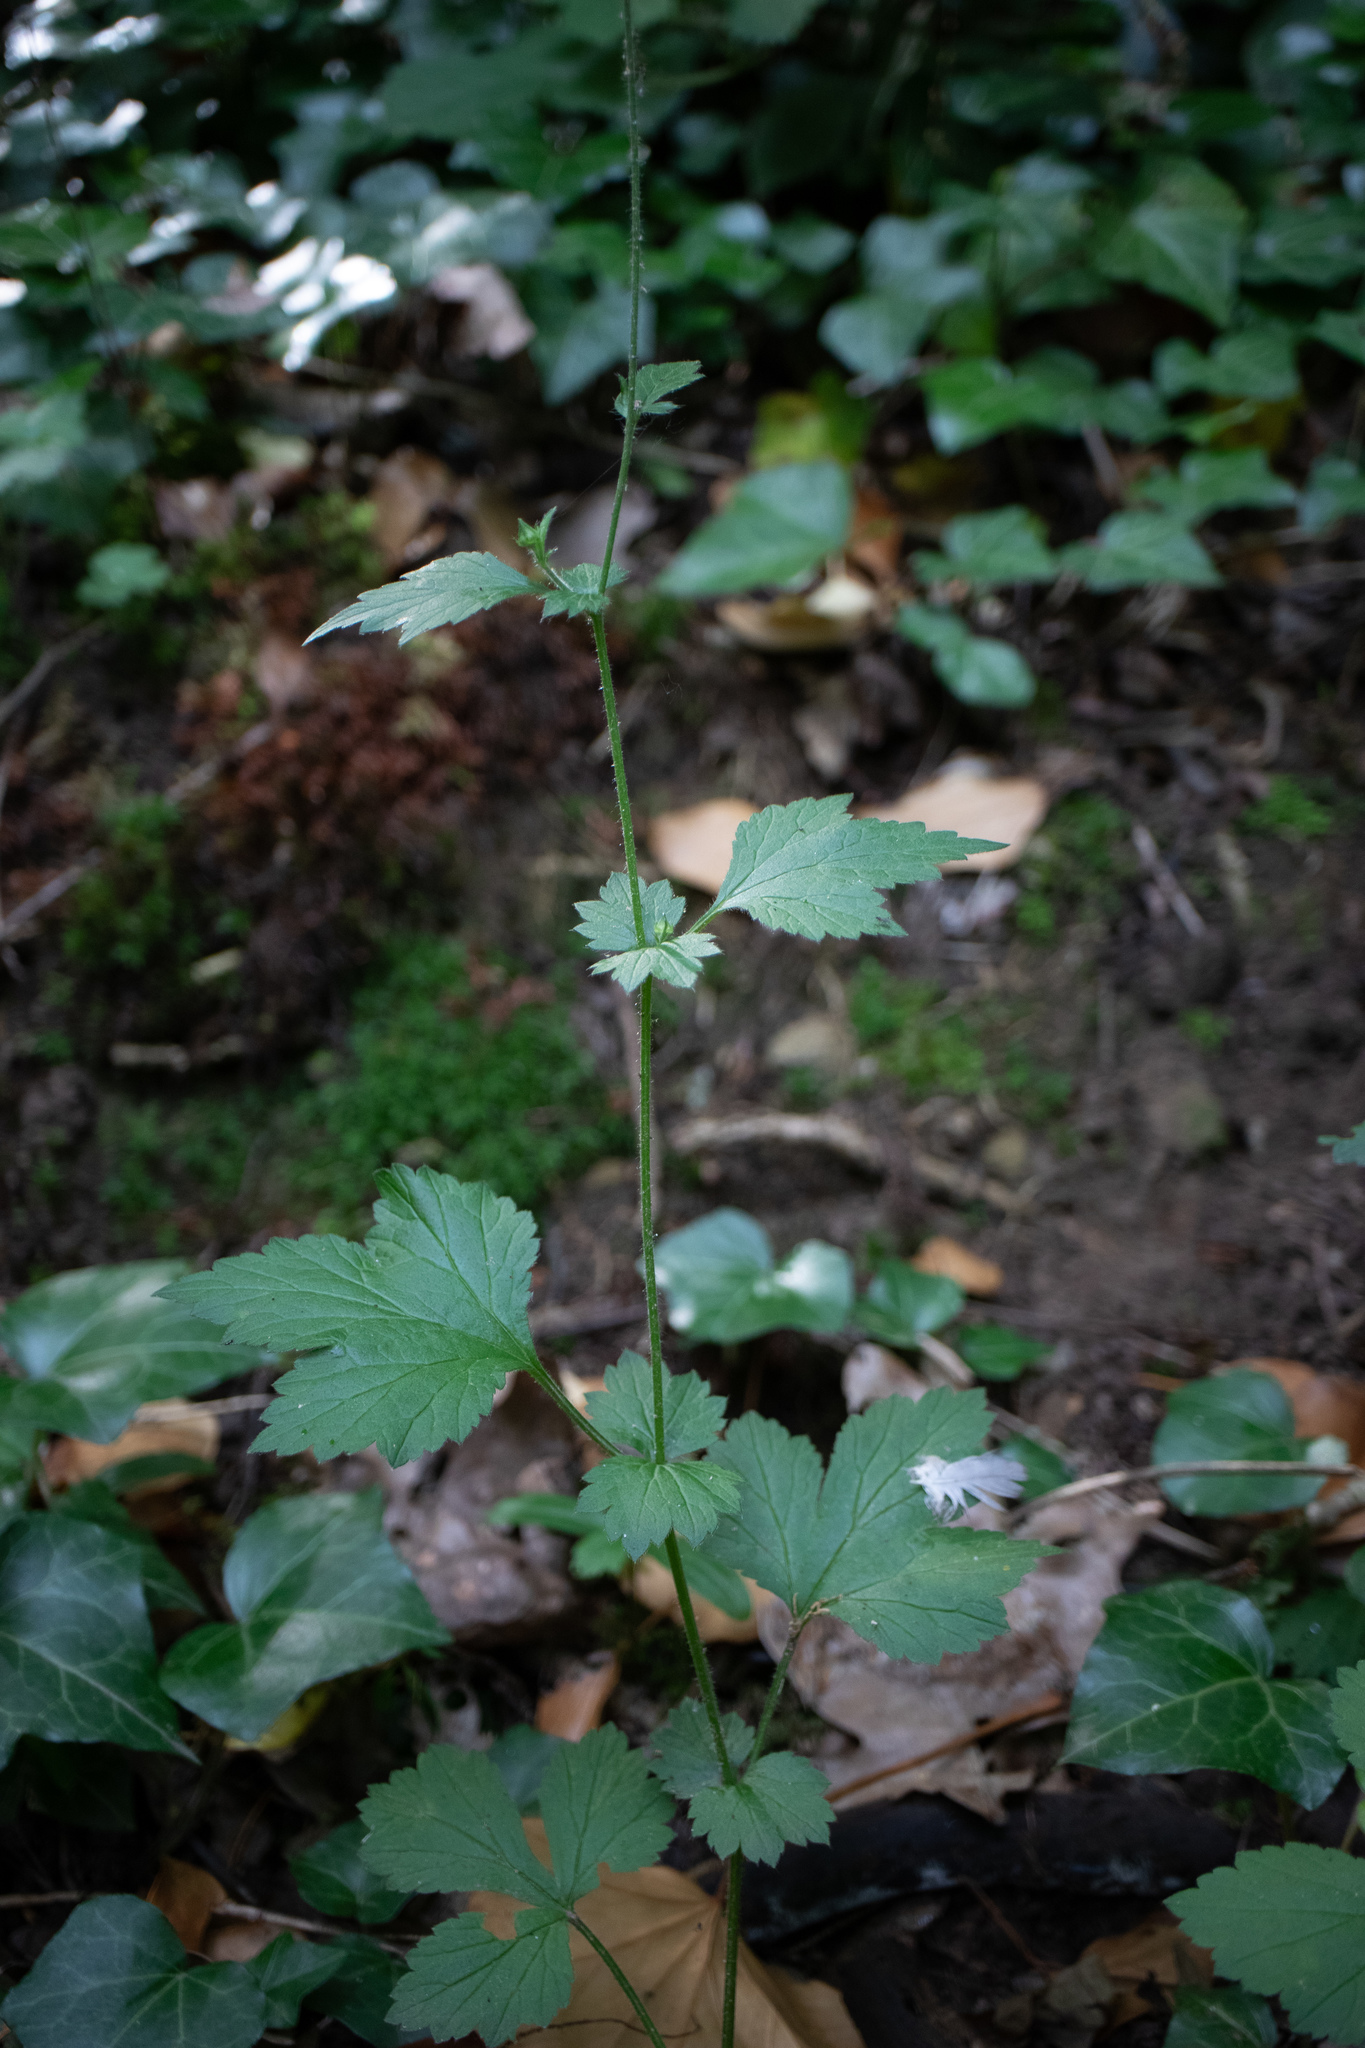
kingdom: Plantae
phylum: Tracheophyta
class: Magnoliopsida
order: Rosales
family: Rosaceae
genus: Geum
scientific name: Geum urbanum
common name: Wood avens
